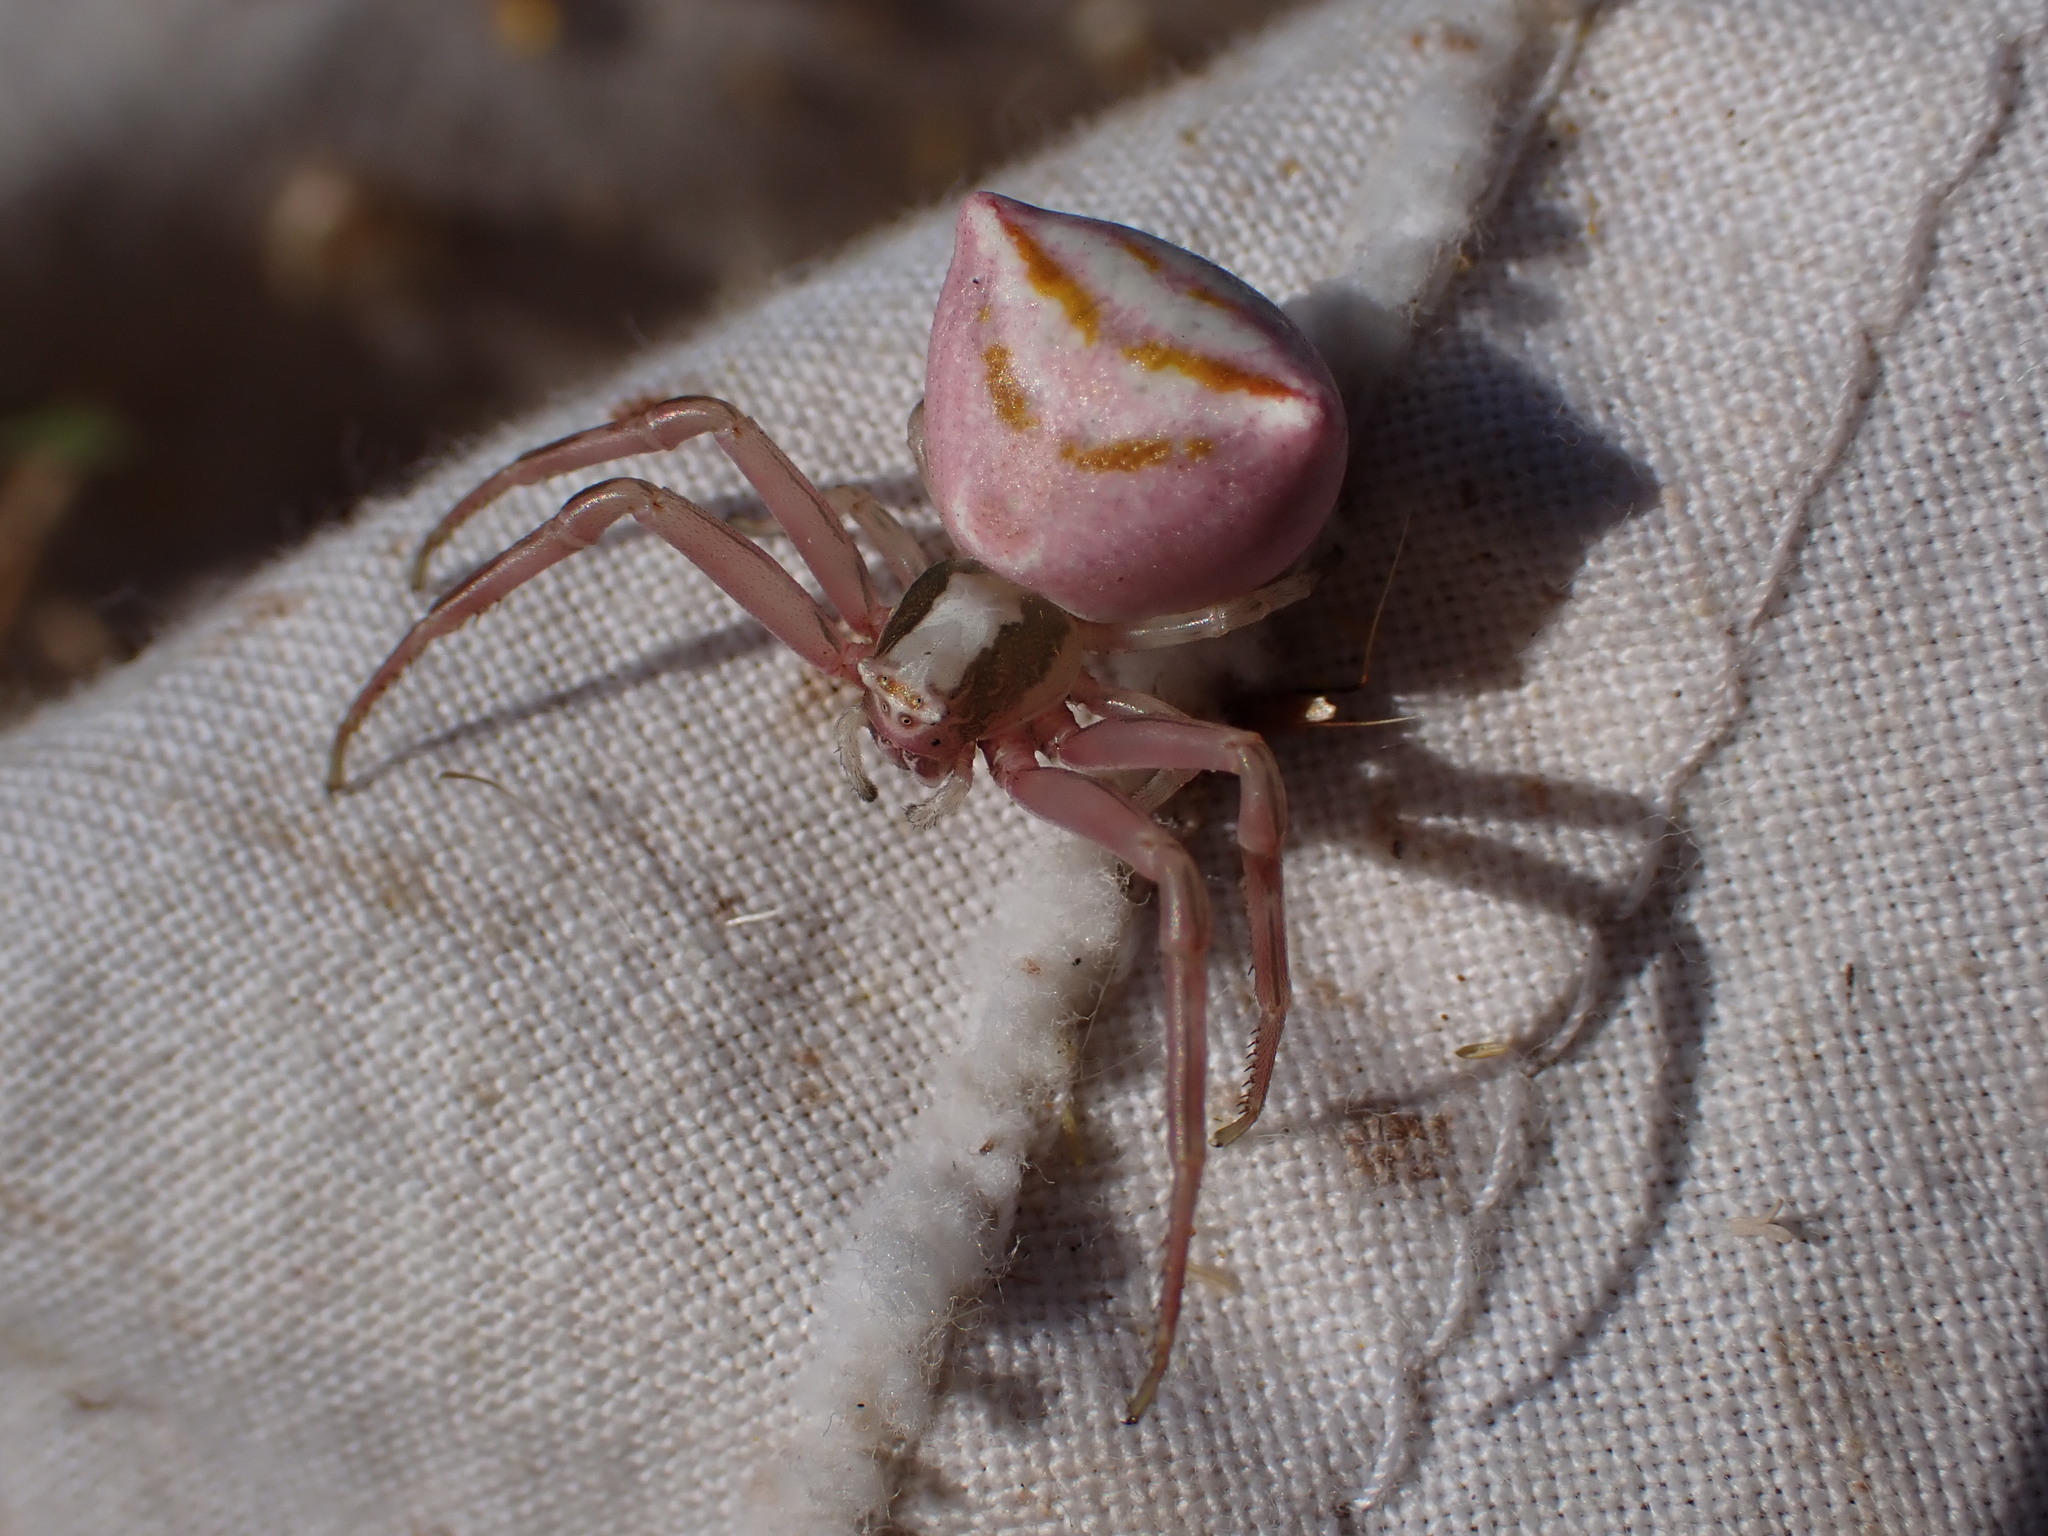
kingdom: Animalia
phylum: Arthropoda
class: Arachnida
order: Araneae
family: Thomisidae
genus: Thomisus
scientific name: Thomisus onustus
